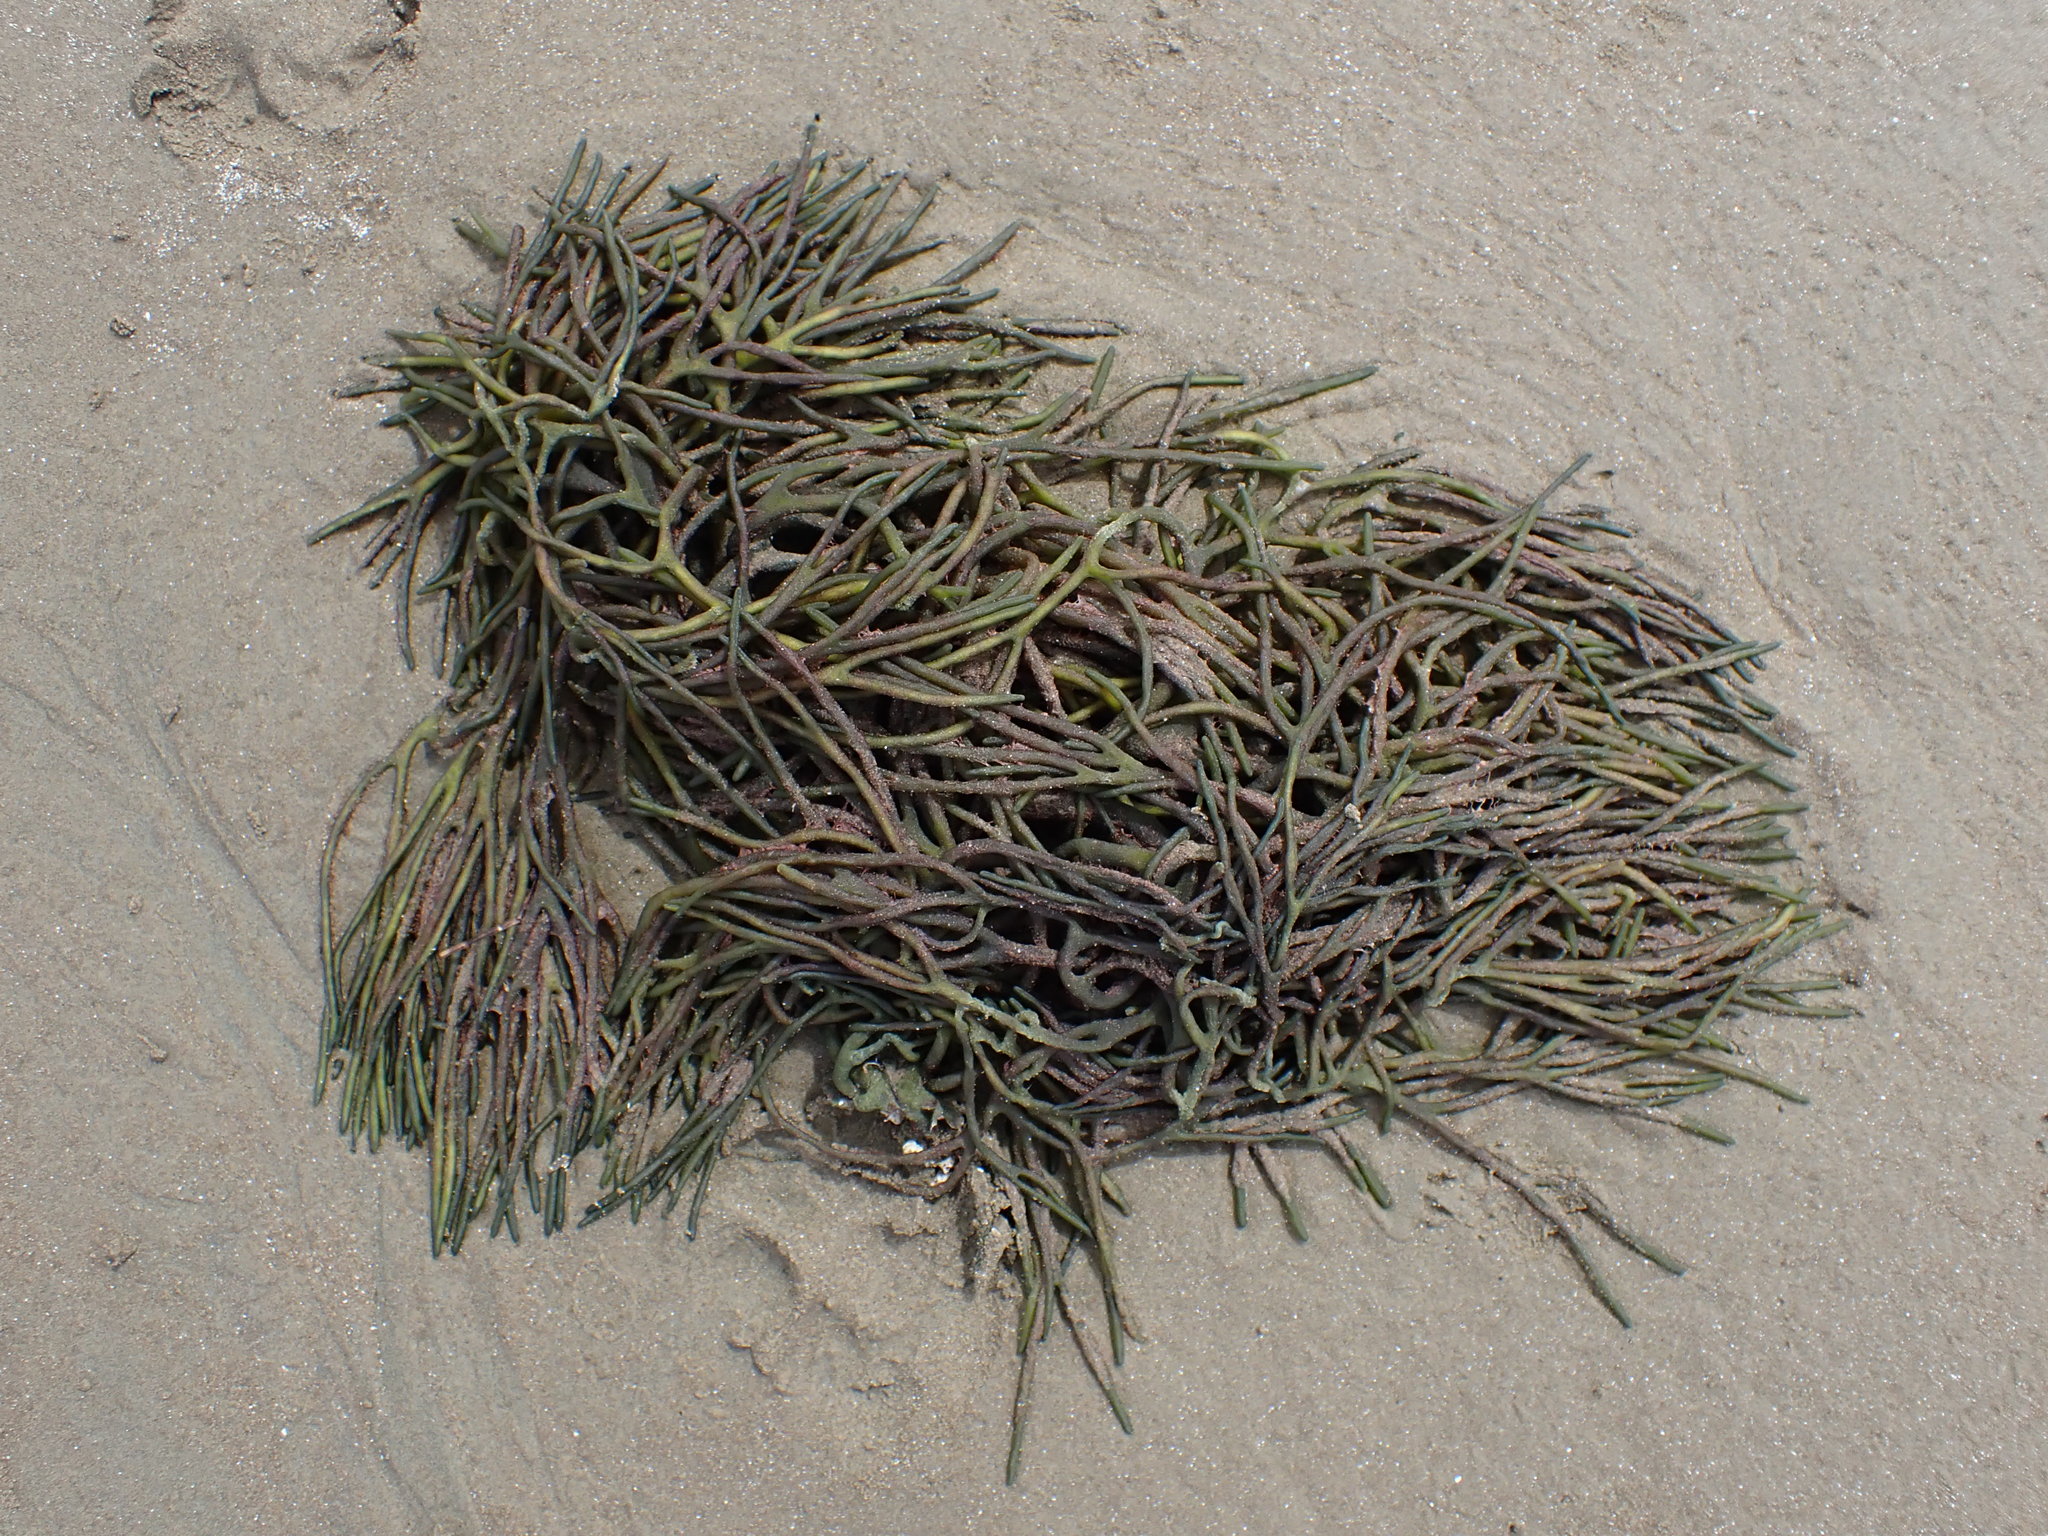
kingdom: Plantae
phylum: Chlorophyta
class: Ulvophyceae
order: Bryopsidales
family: Codiaceae
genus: Codium
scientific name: Codium fragile
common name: Dead man's fingers
